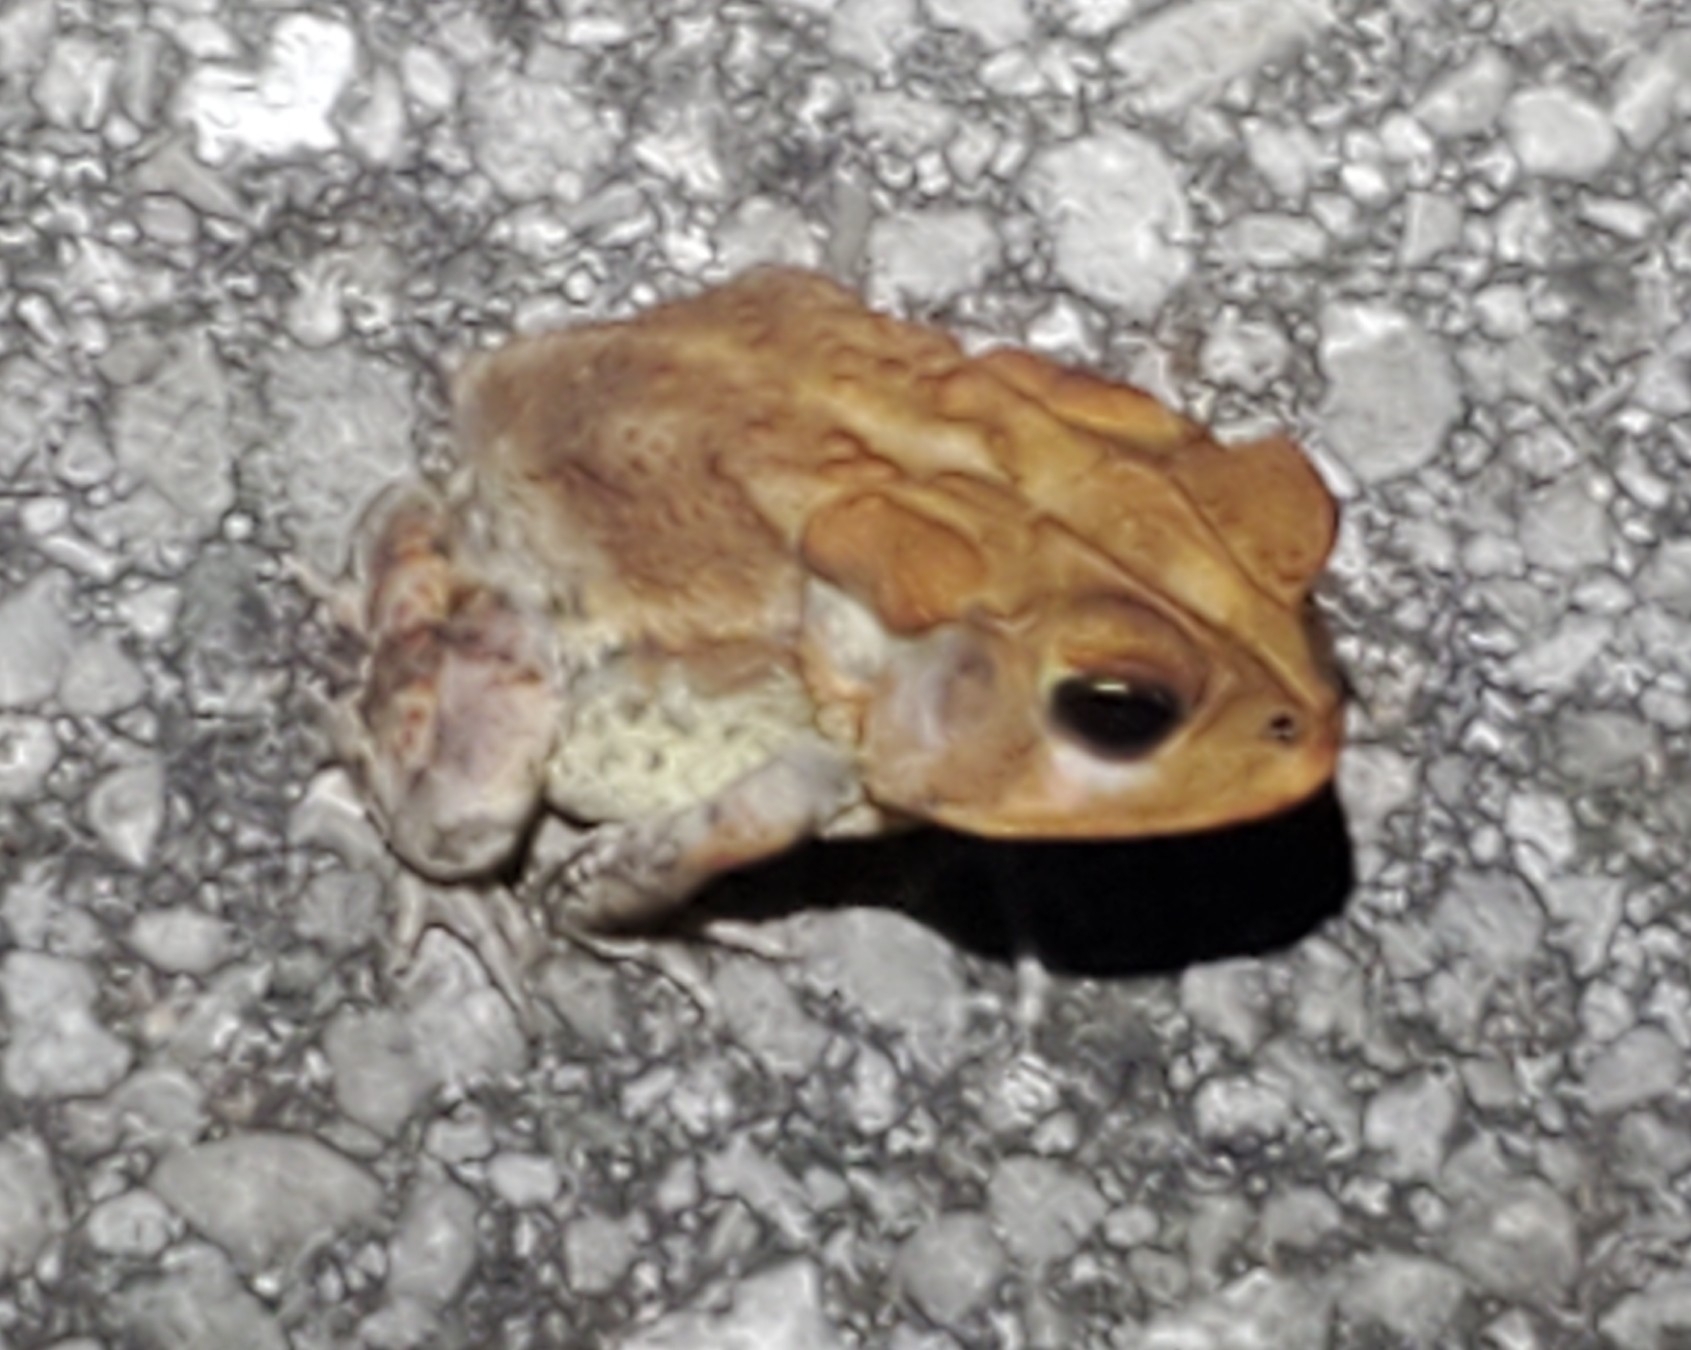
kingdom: Animalia
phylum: Chordata
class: Amphibia
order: Anura
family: Bufonidae
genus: Anaxyrus
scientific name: Anaxyrus terrestris
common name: Southern toad
